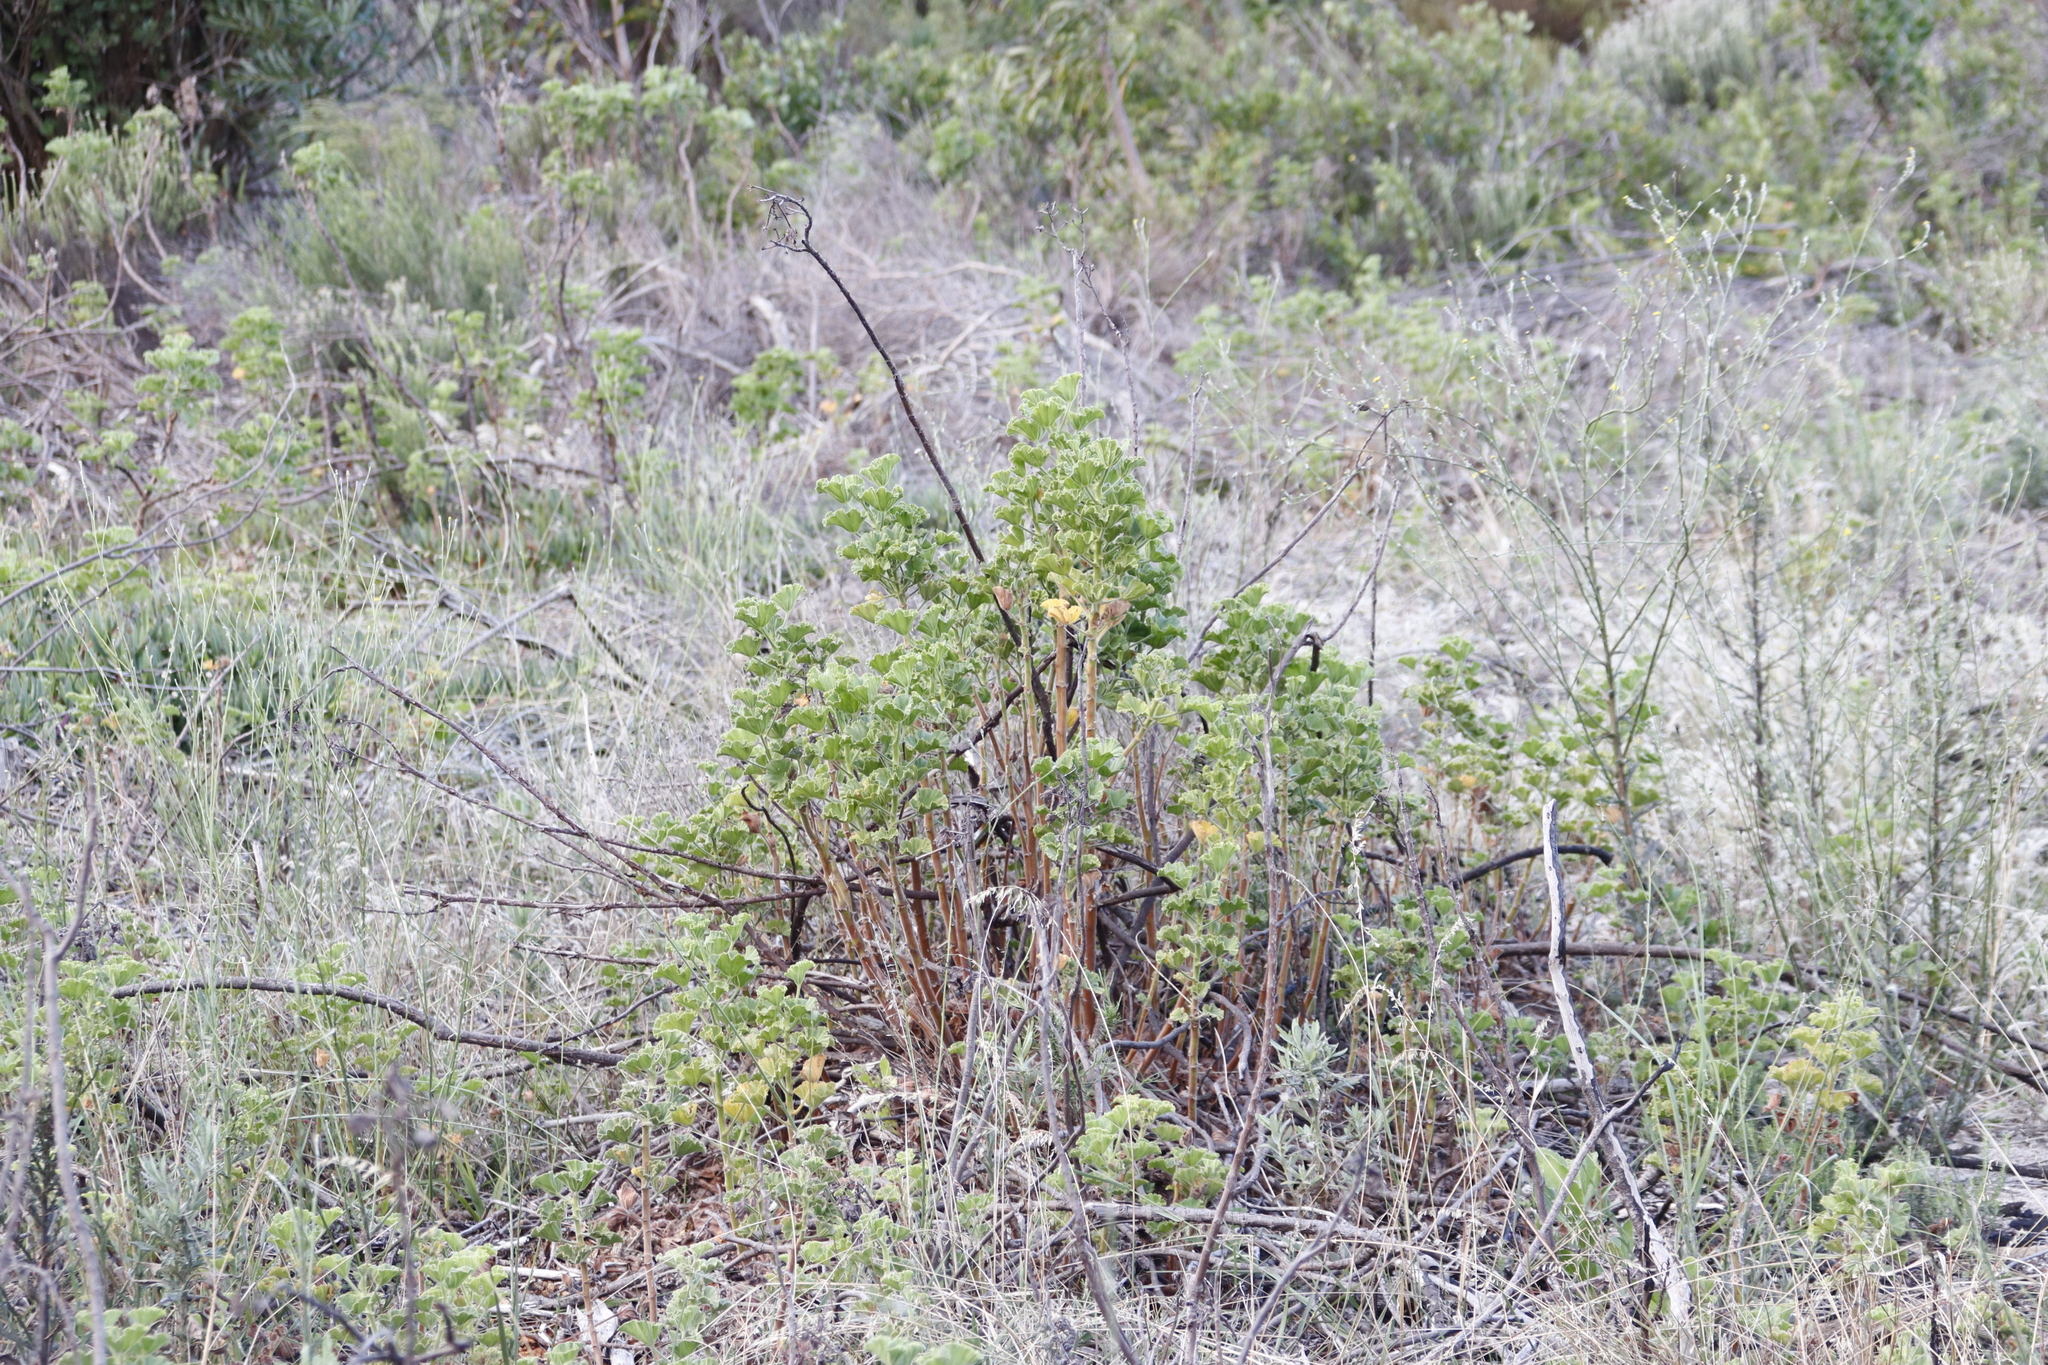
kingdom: Plantae
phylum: Tracheophyta
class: Magnoliopsida
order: Geraniales
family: Geraniaceae
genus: Pelargonium
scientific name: Pelargonium cucullatum
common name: Tree pelargonium
